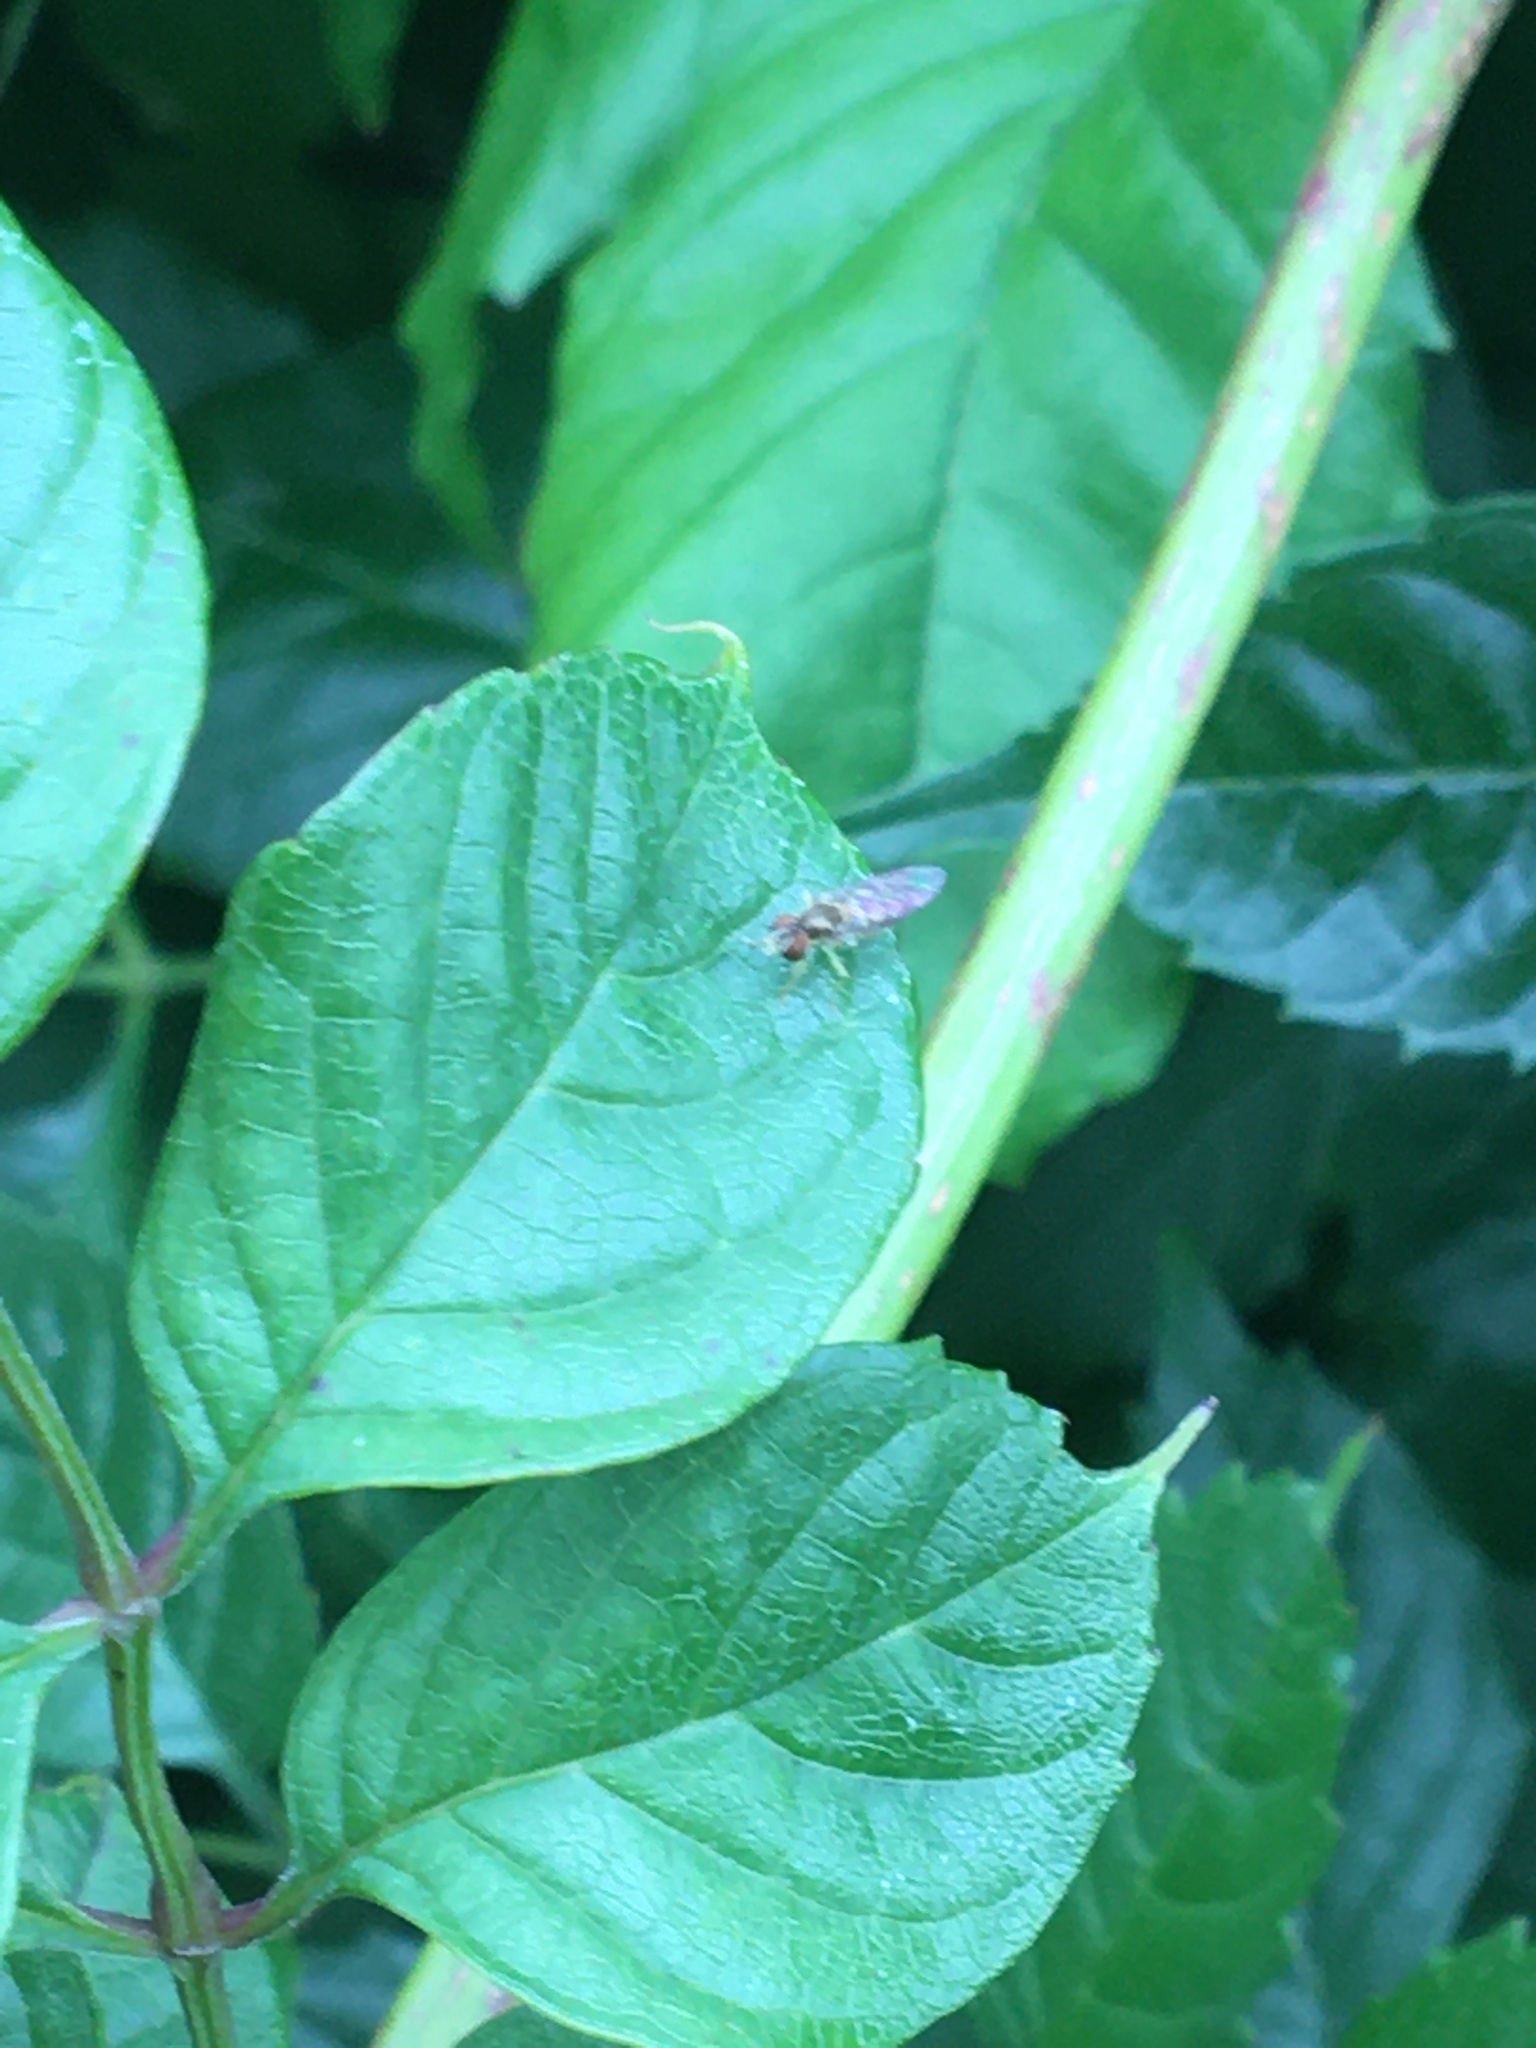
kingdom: Animalia
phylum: Arthropoda
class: Insecta
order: Diptera
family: Syrphidae
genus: Toxomerus
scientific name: Toxomerus marginatus
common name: Syrphid fly
